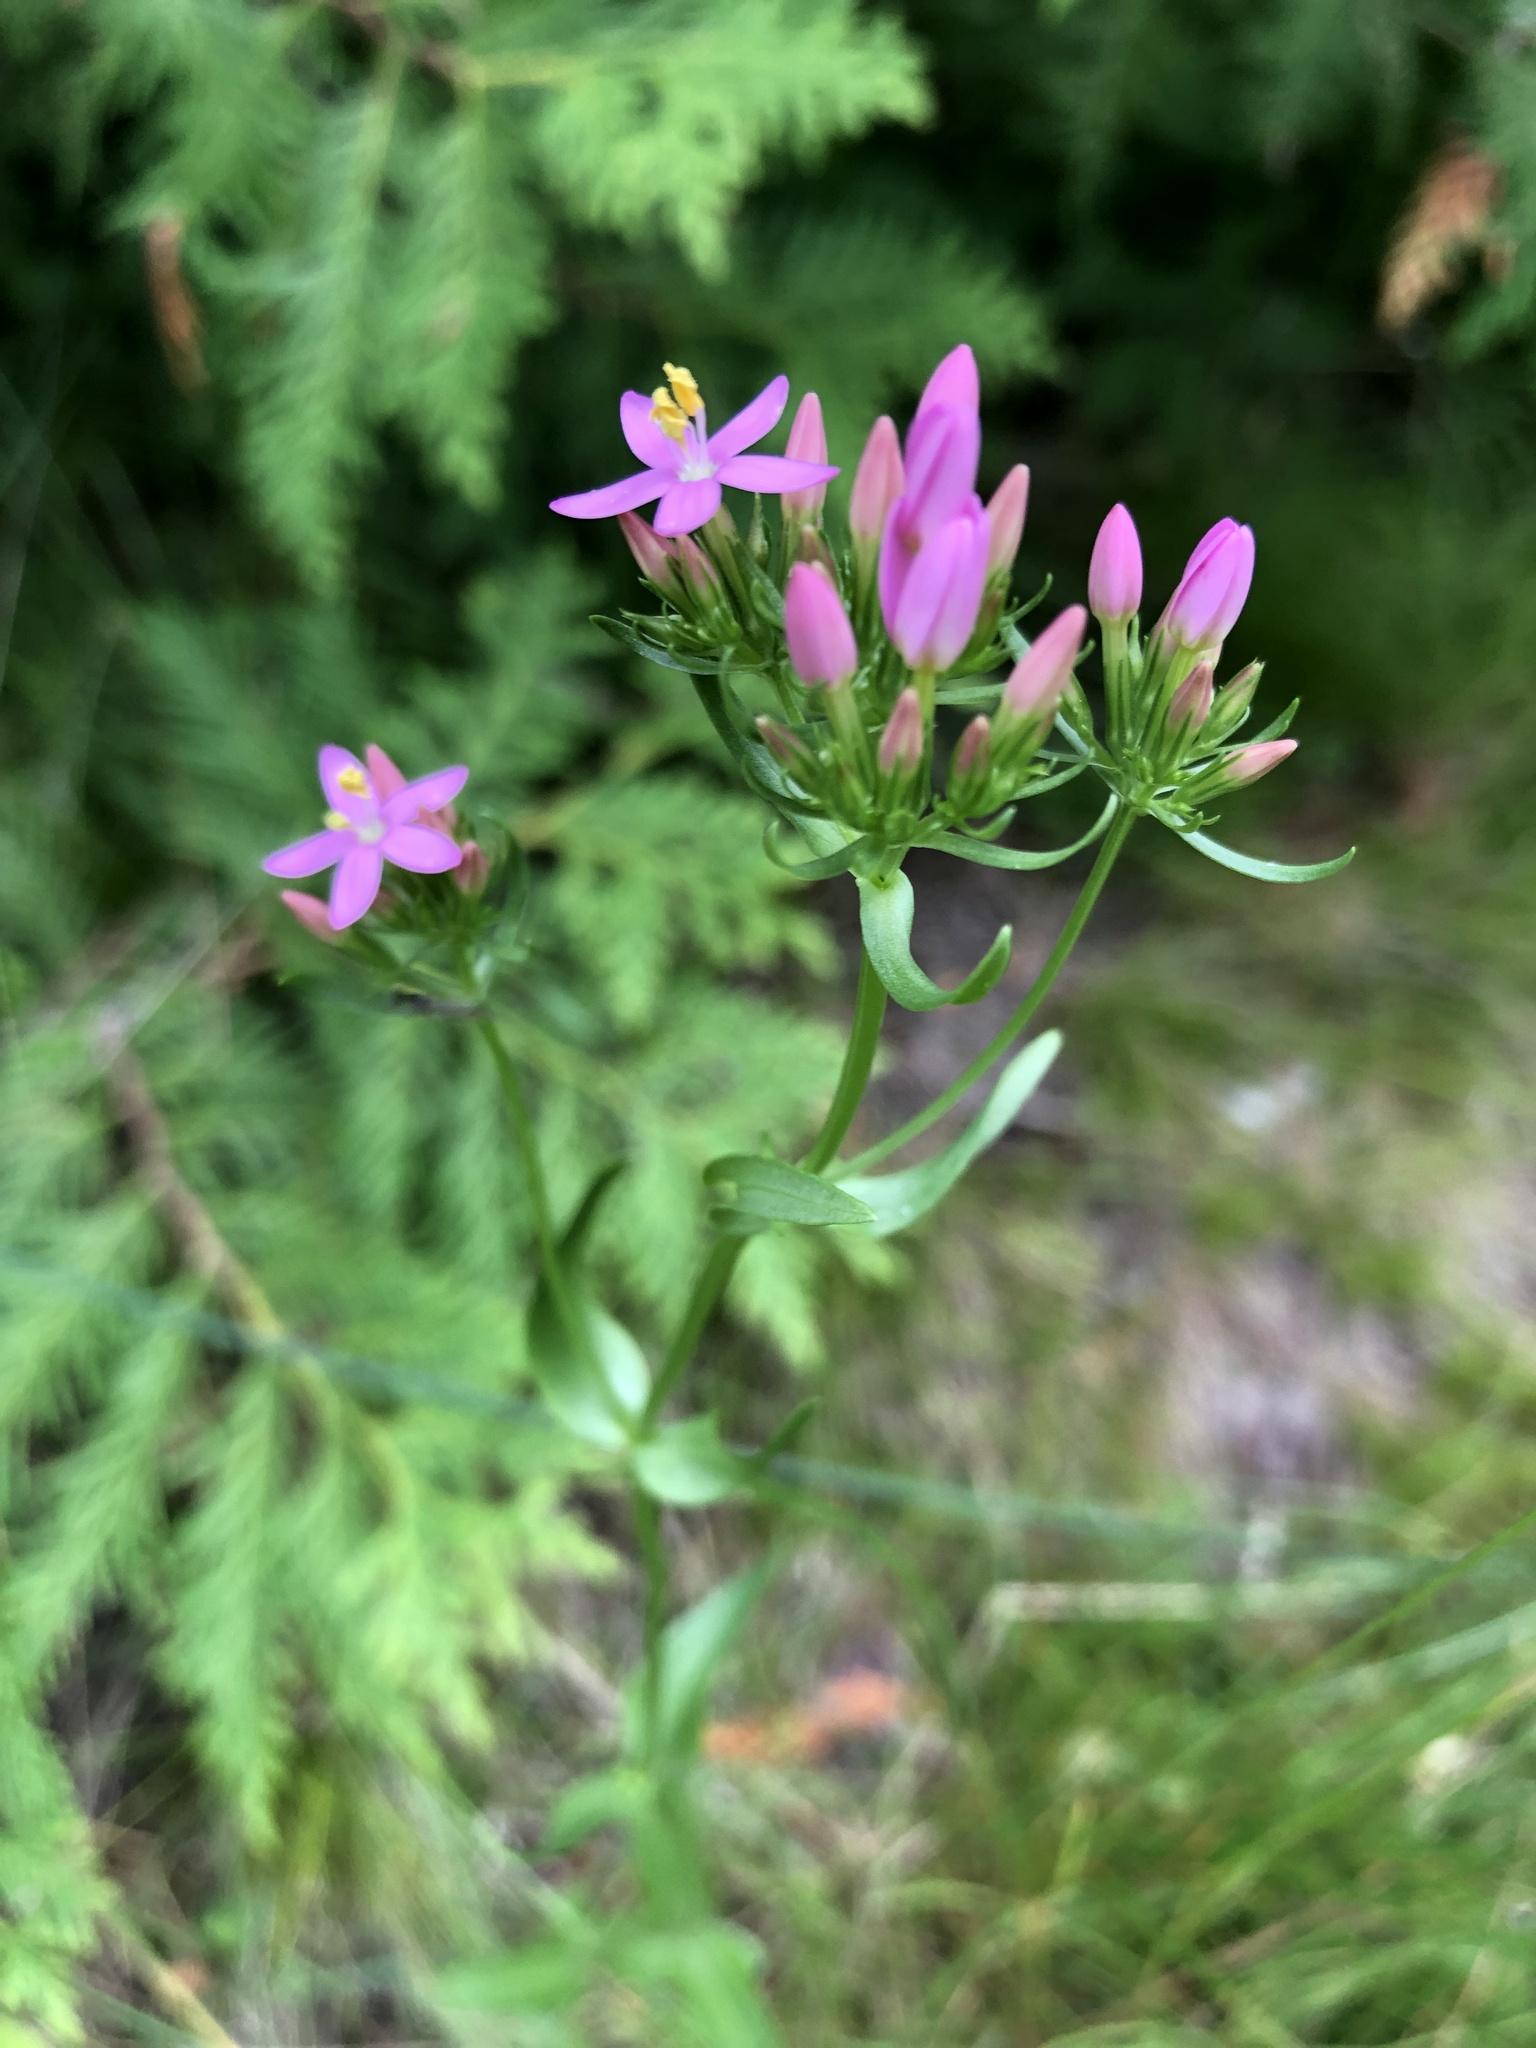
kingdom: Plantae
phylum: Tracheophyta
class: Magnoliopsida
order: Gentianales
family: Gentianaceae
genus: Centaurium
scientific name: Centaurium erythraea
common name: Common centaury
